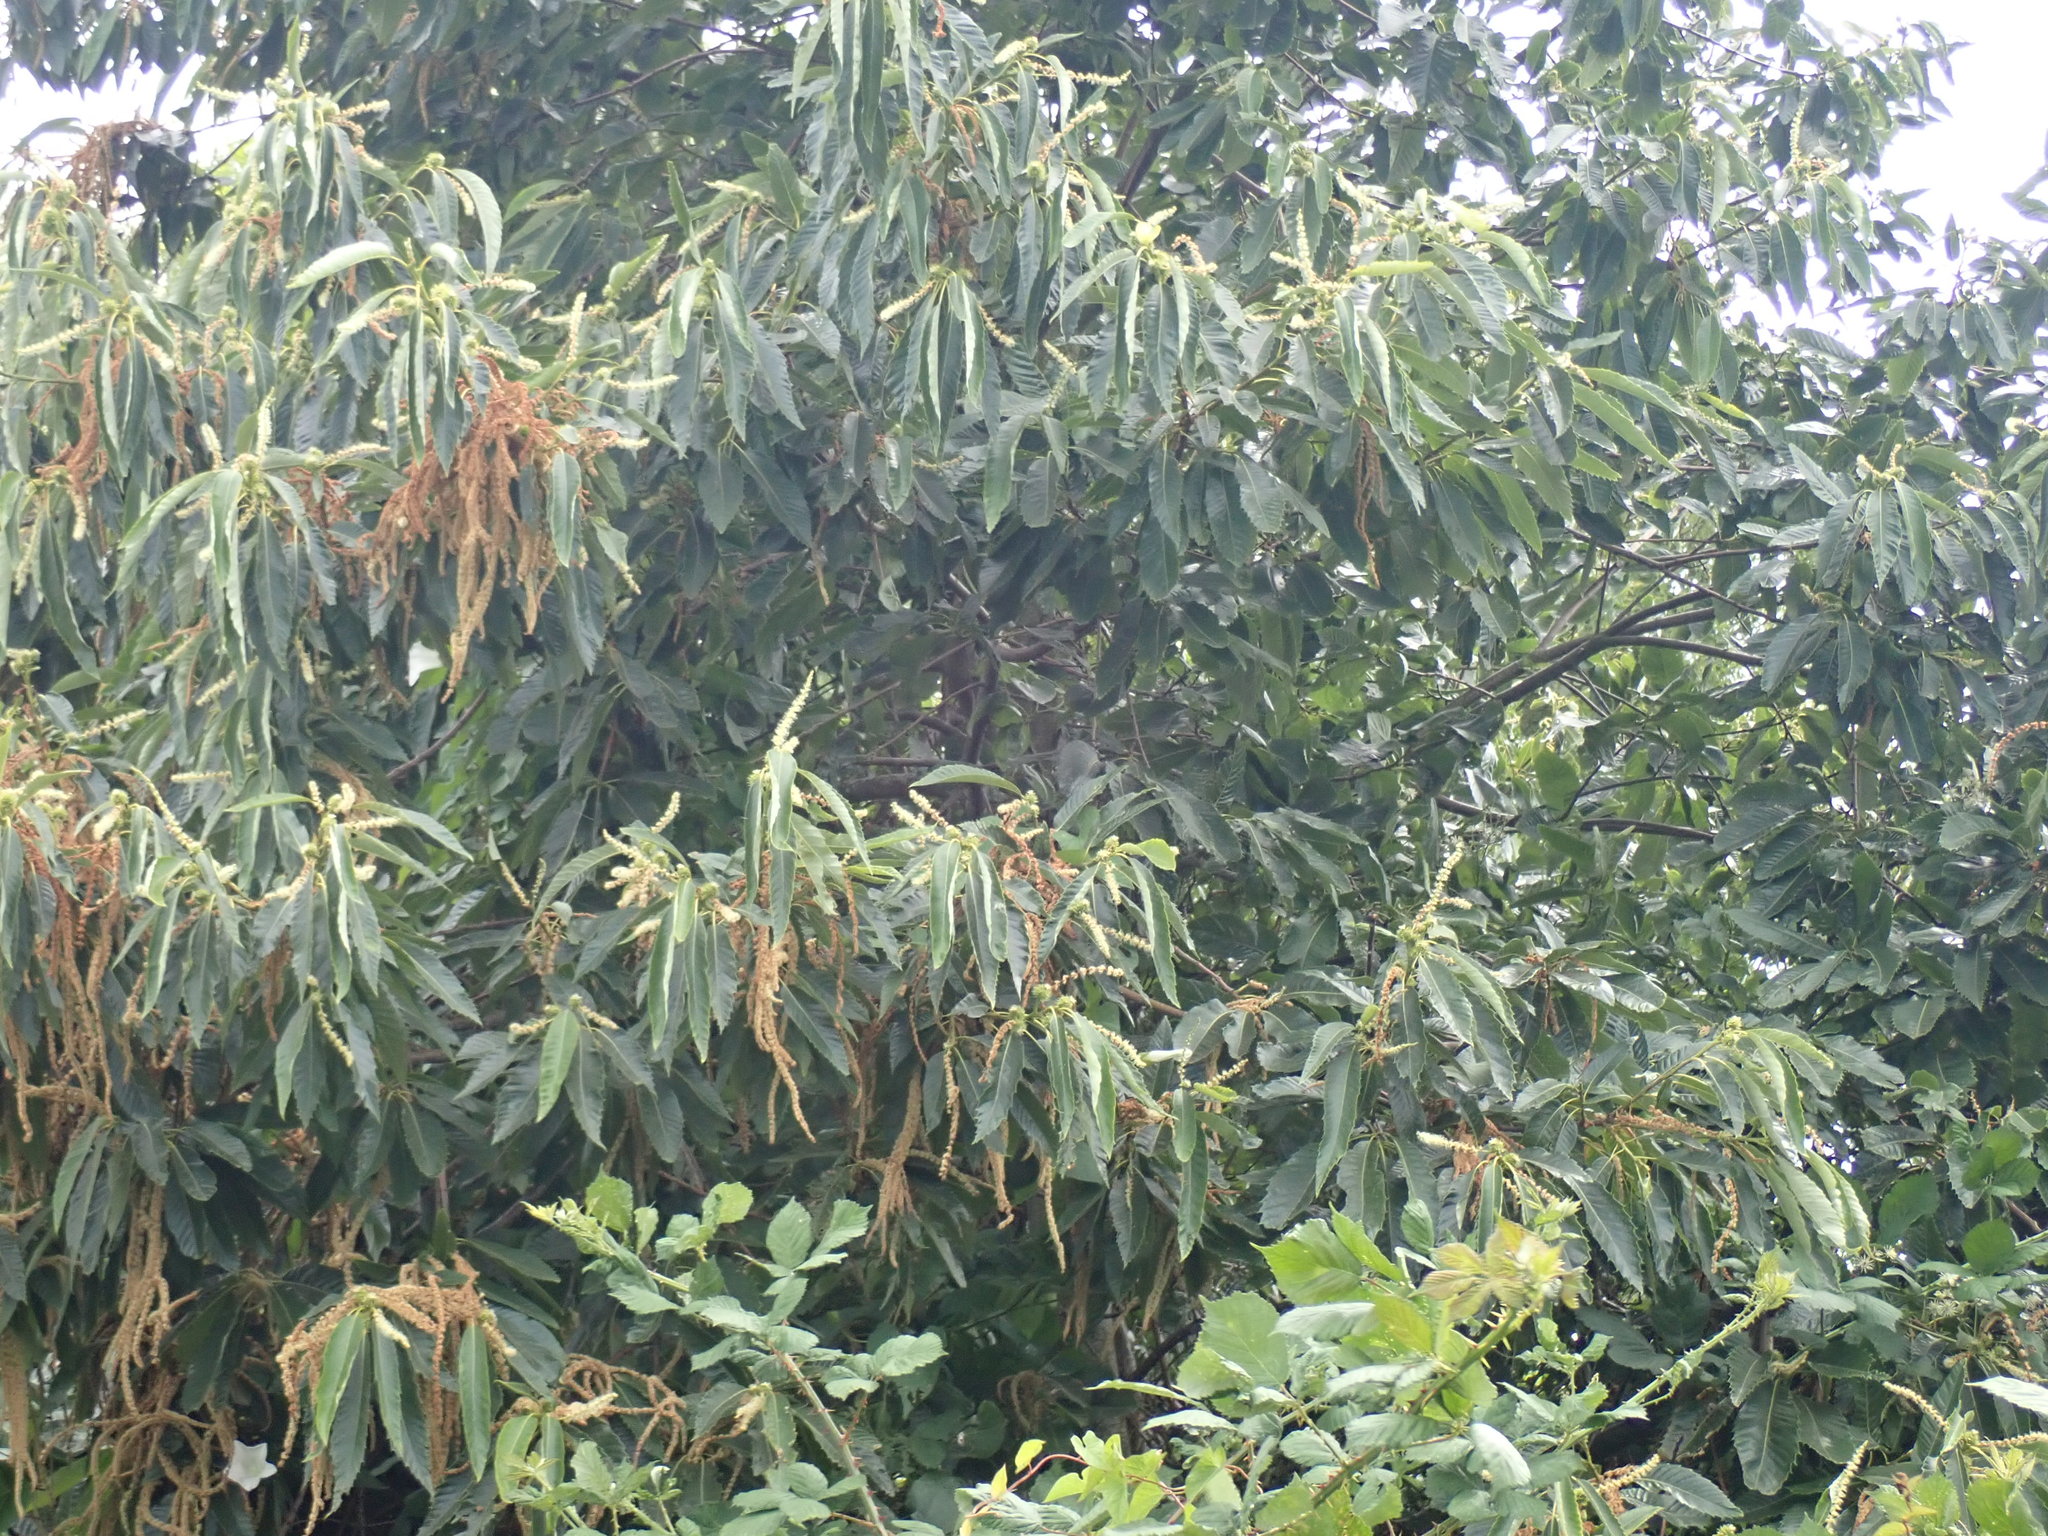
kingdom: Plantae
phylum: Tracheophyta
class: Magnoliopsida
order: Fagales
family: Fagaceae
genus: Castanea
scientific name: Castanea sativa
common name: Sweet chestnut
